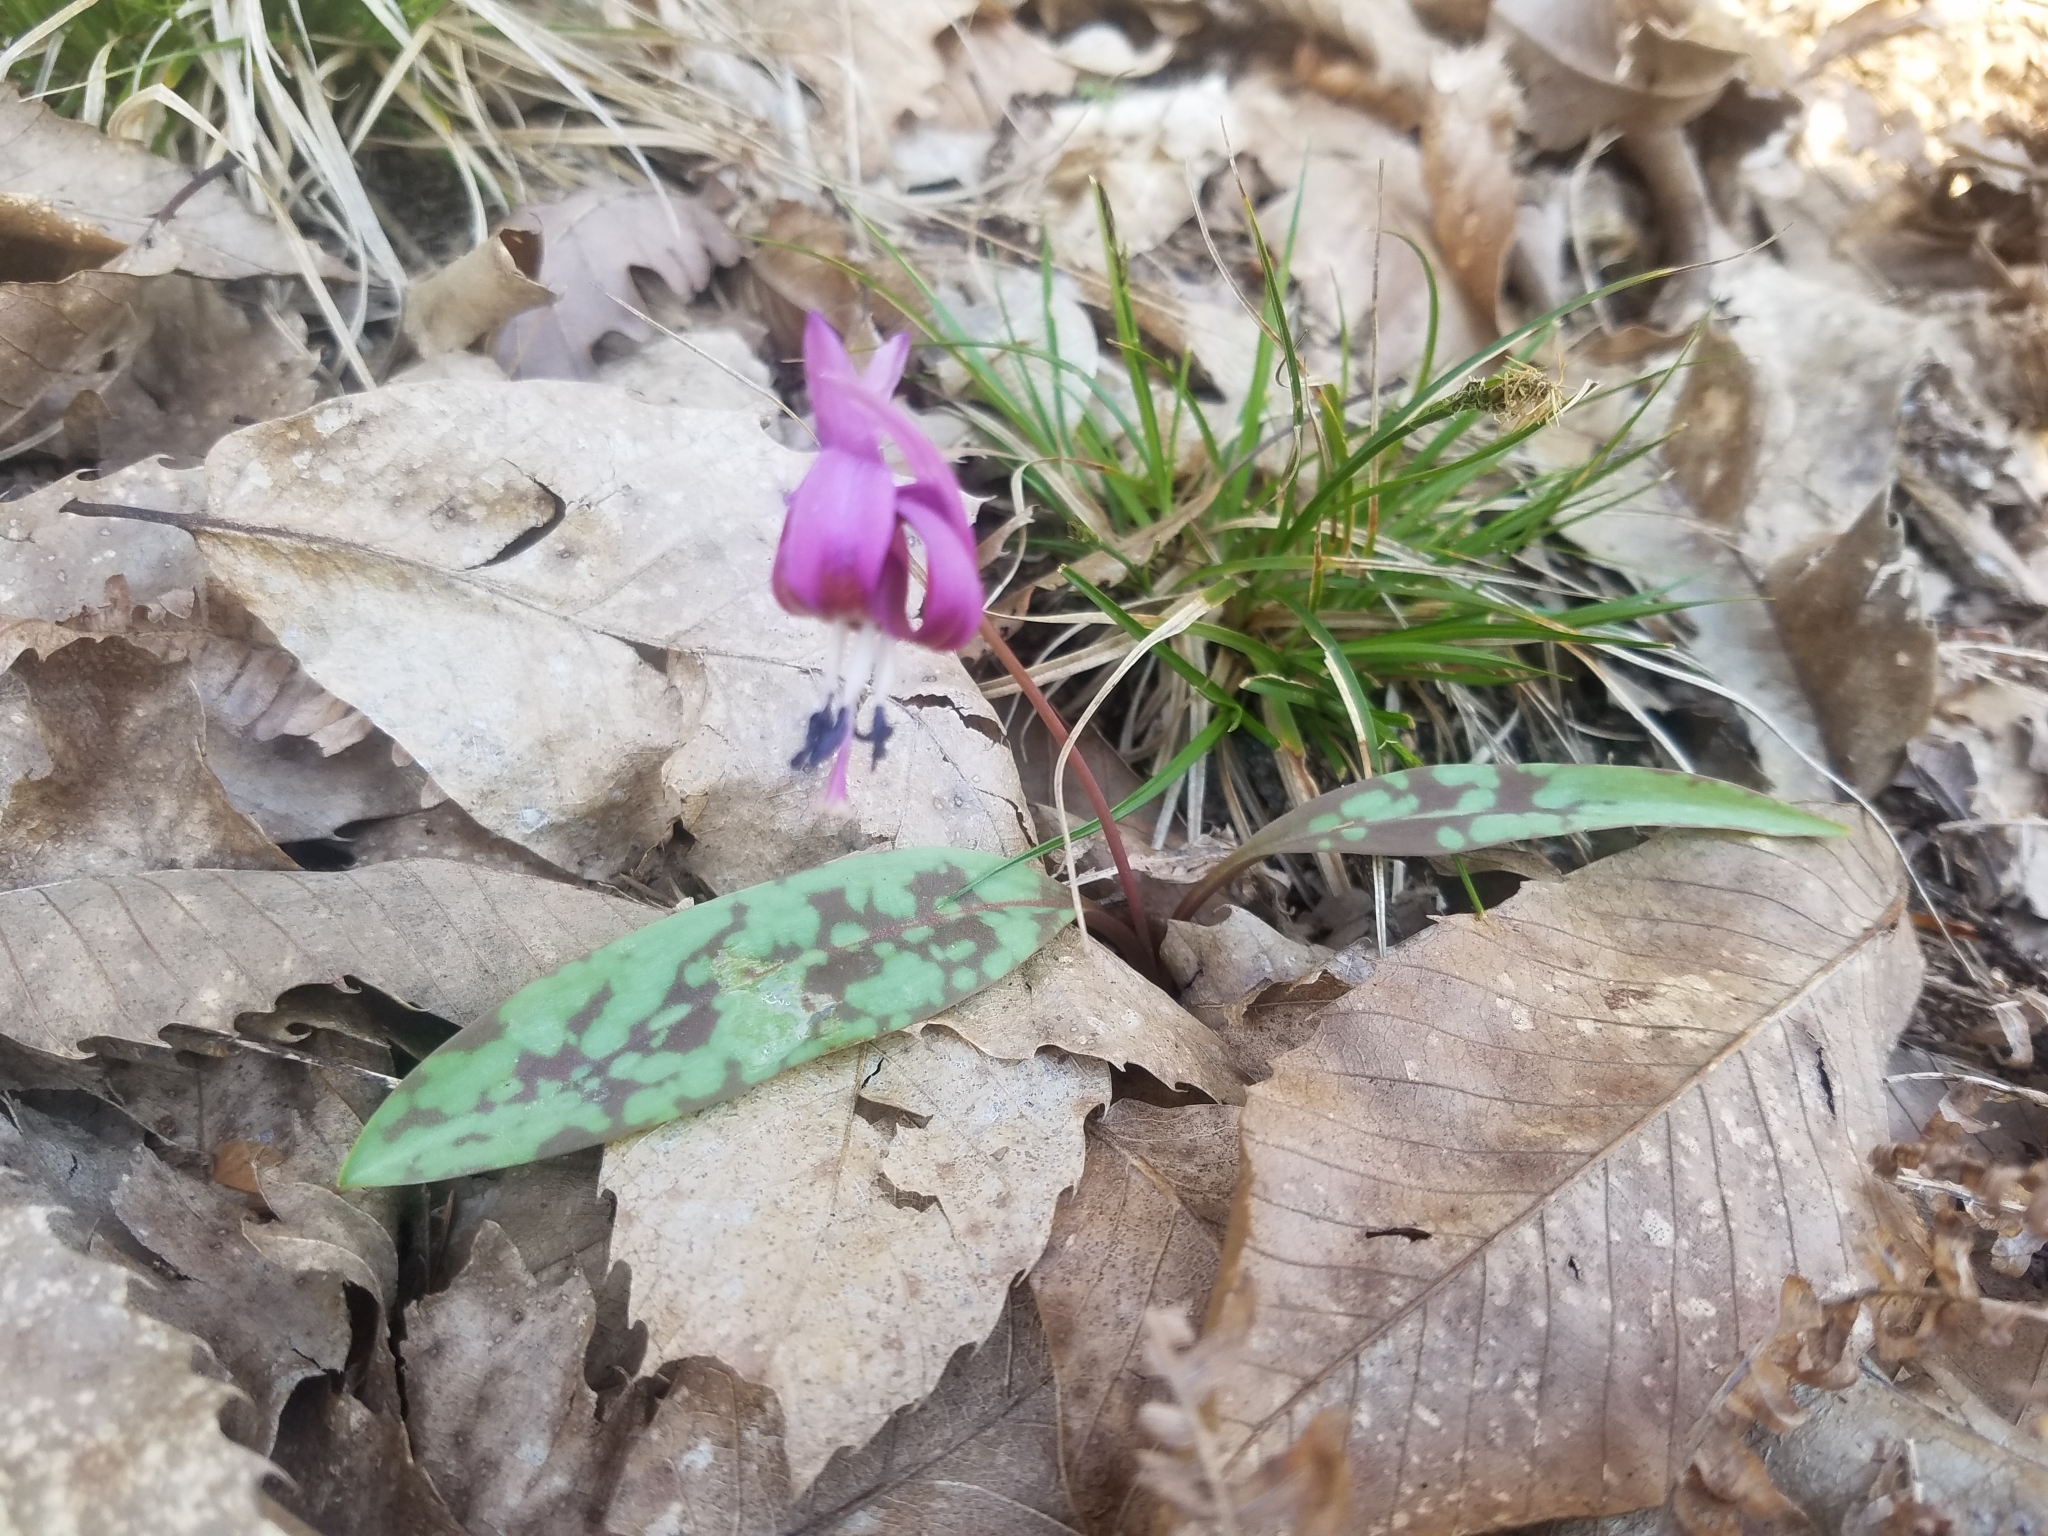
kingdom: Plantae
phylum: Tracheophyta
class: Liliopsida
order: Liliales
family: Liliaceae
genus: Erythronium
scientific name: Erythronium dens-canis
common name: Dog's-tooth-violet
